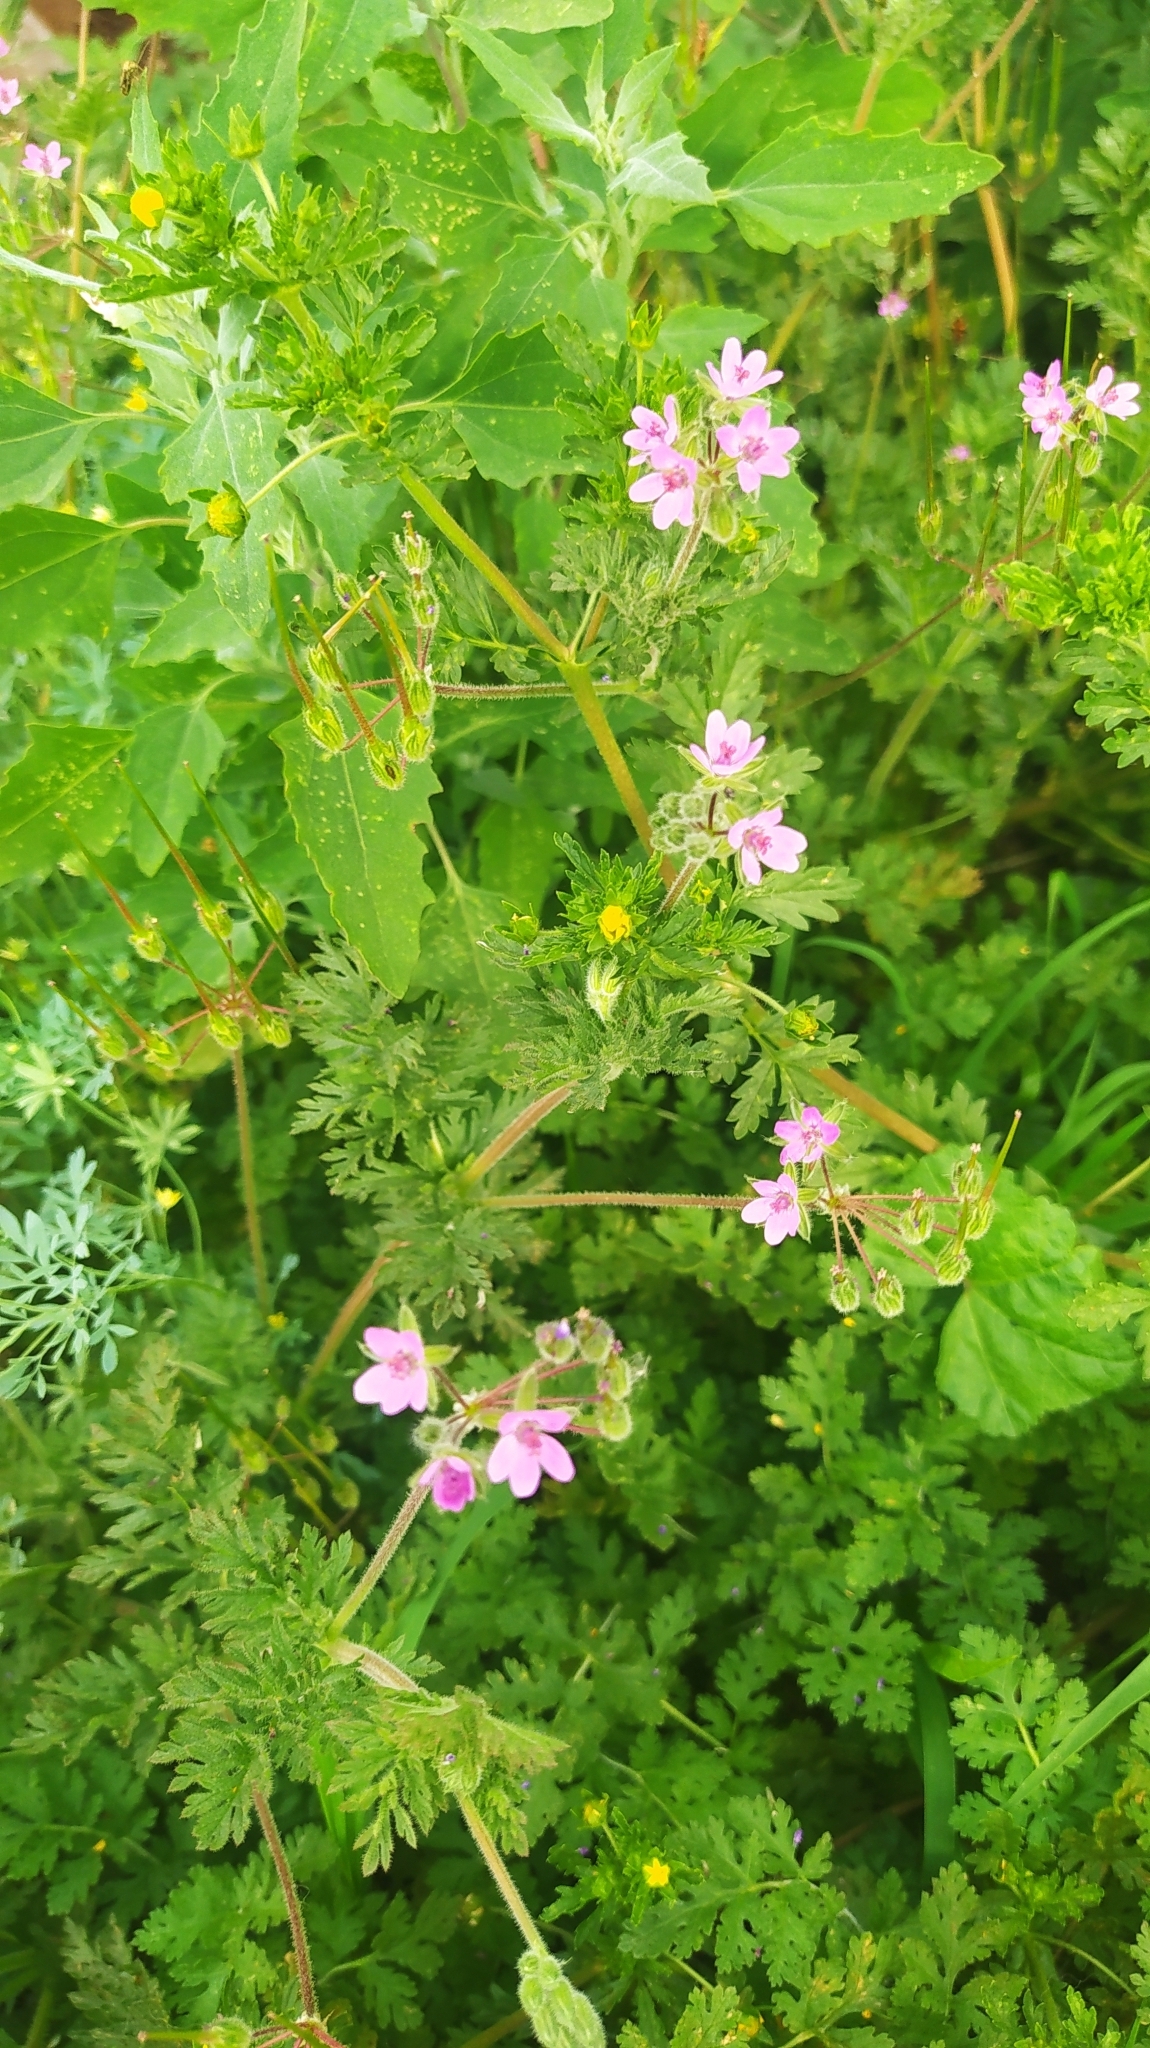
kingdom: Plantae
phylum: Tracheophyta
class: Magnoliopsida
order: Geraniales
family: Geraniaceae
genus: Erodium
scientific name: Erodium cicutarium
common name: Common stork's-bill
